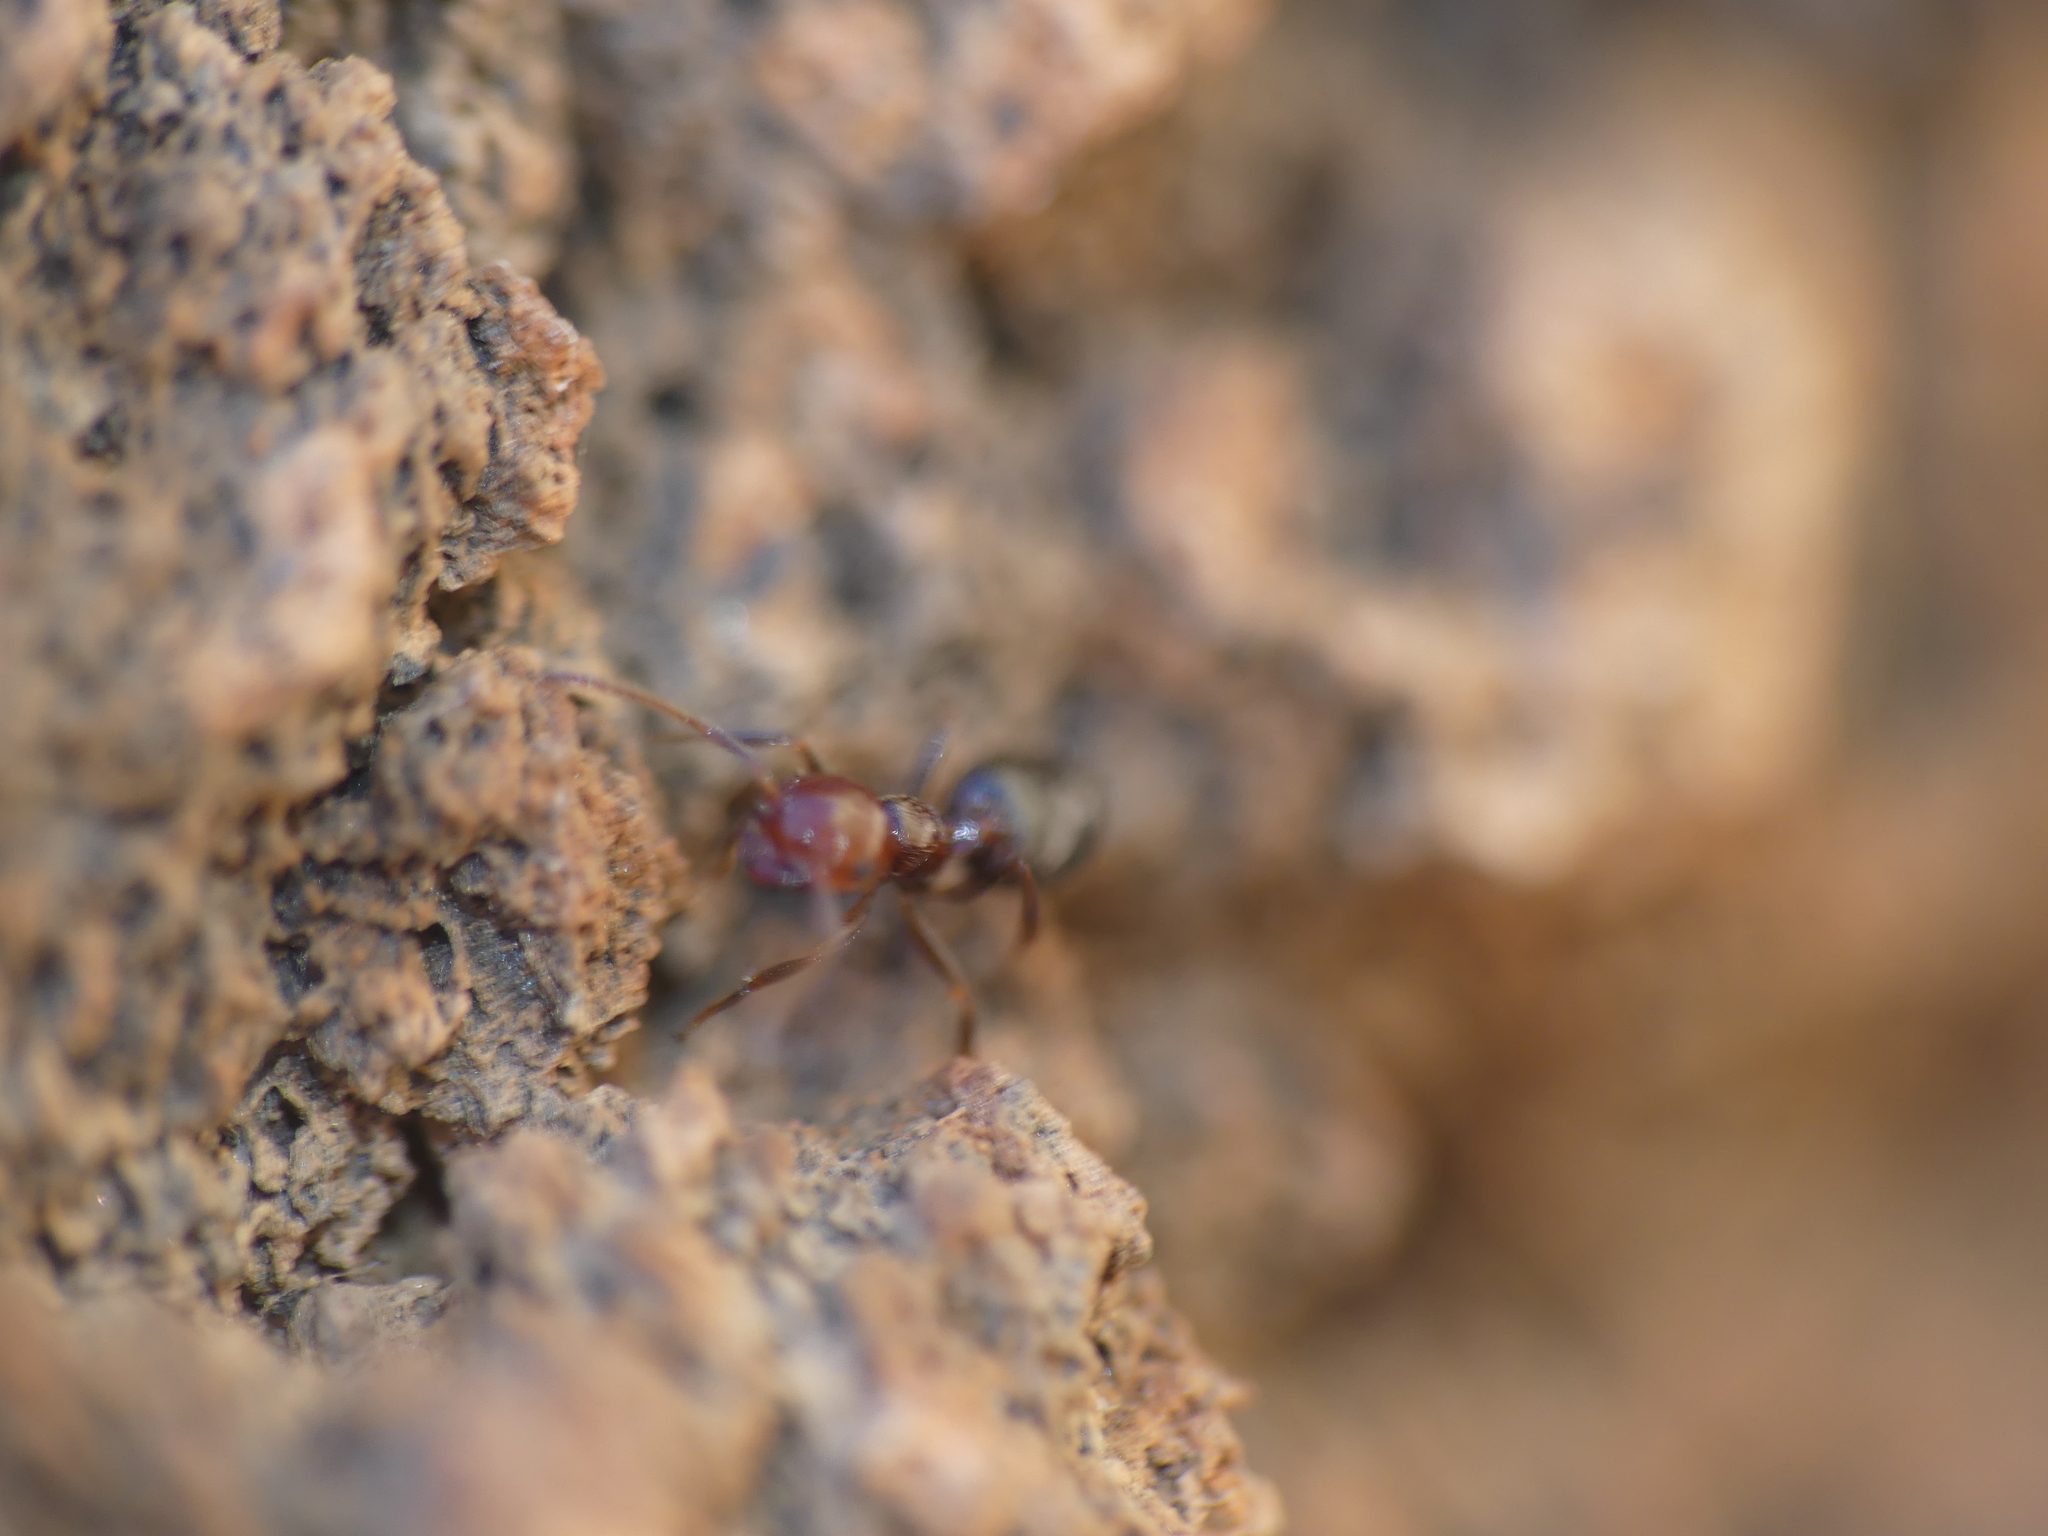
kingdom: Animalia
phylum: Arthropoda
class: Insecta
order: Hymenoptera
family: Formicidae
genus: Crematogaster
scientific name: Crematogaster alluaudi
